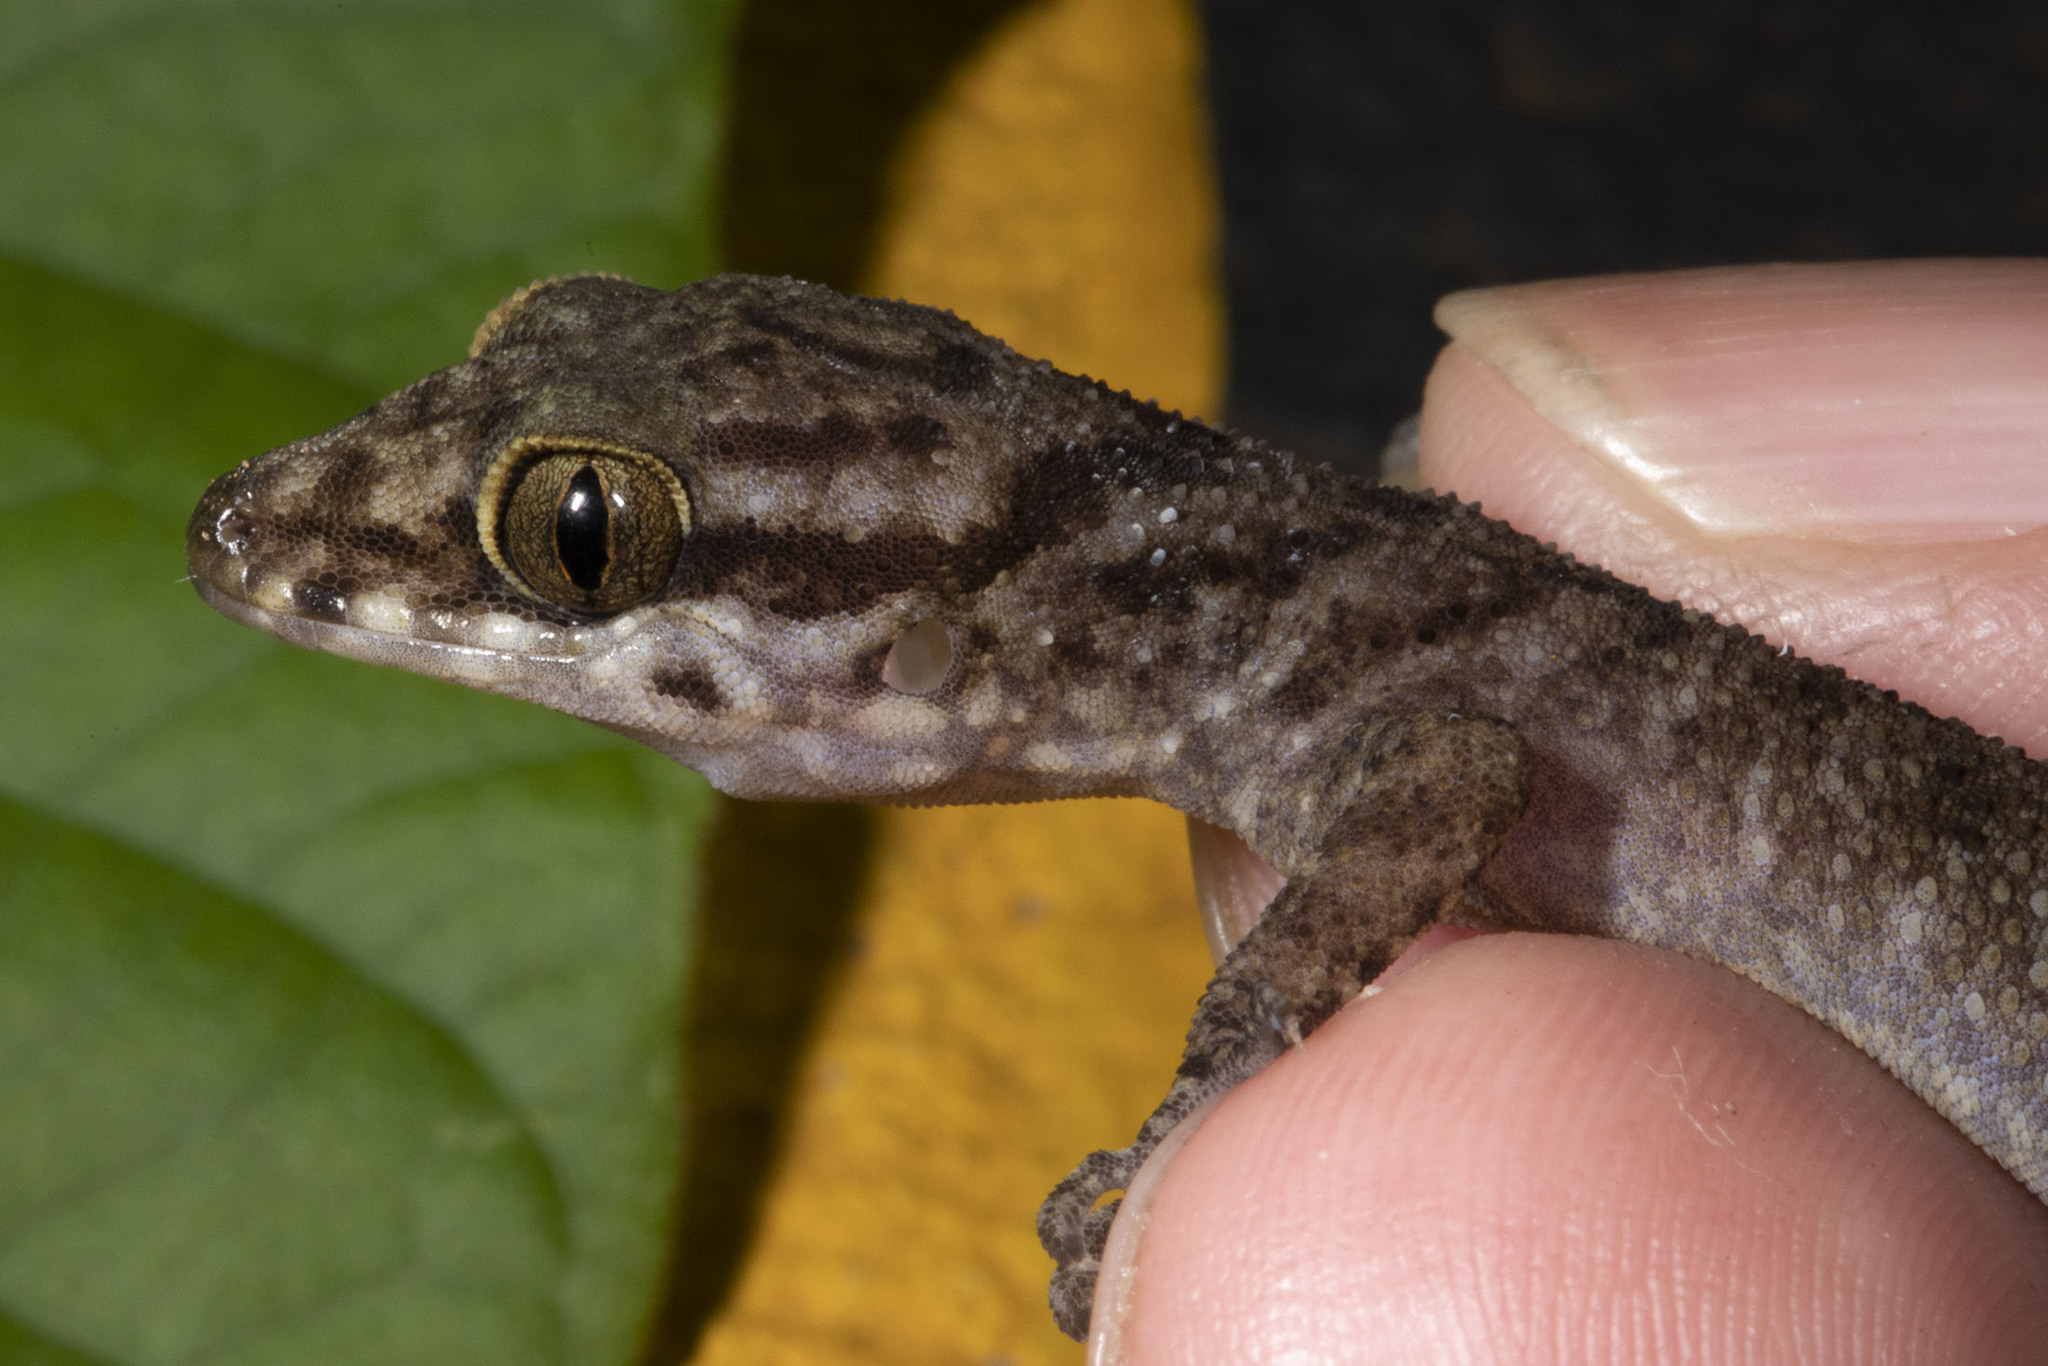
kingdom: Animalia
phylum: Chordata
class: Squamata
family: Gekkonidae
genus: Cyrtodactylus
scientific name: Cyrtodactylus rubidus
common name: Red bow-fingered gecko
